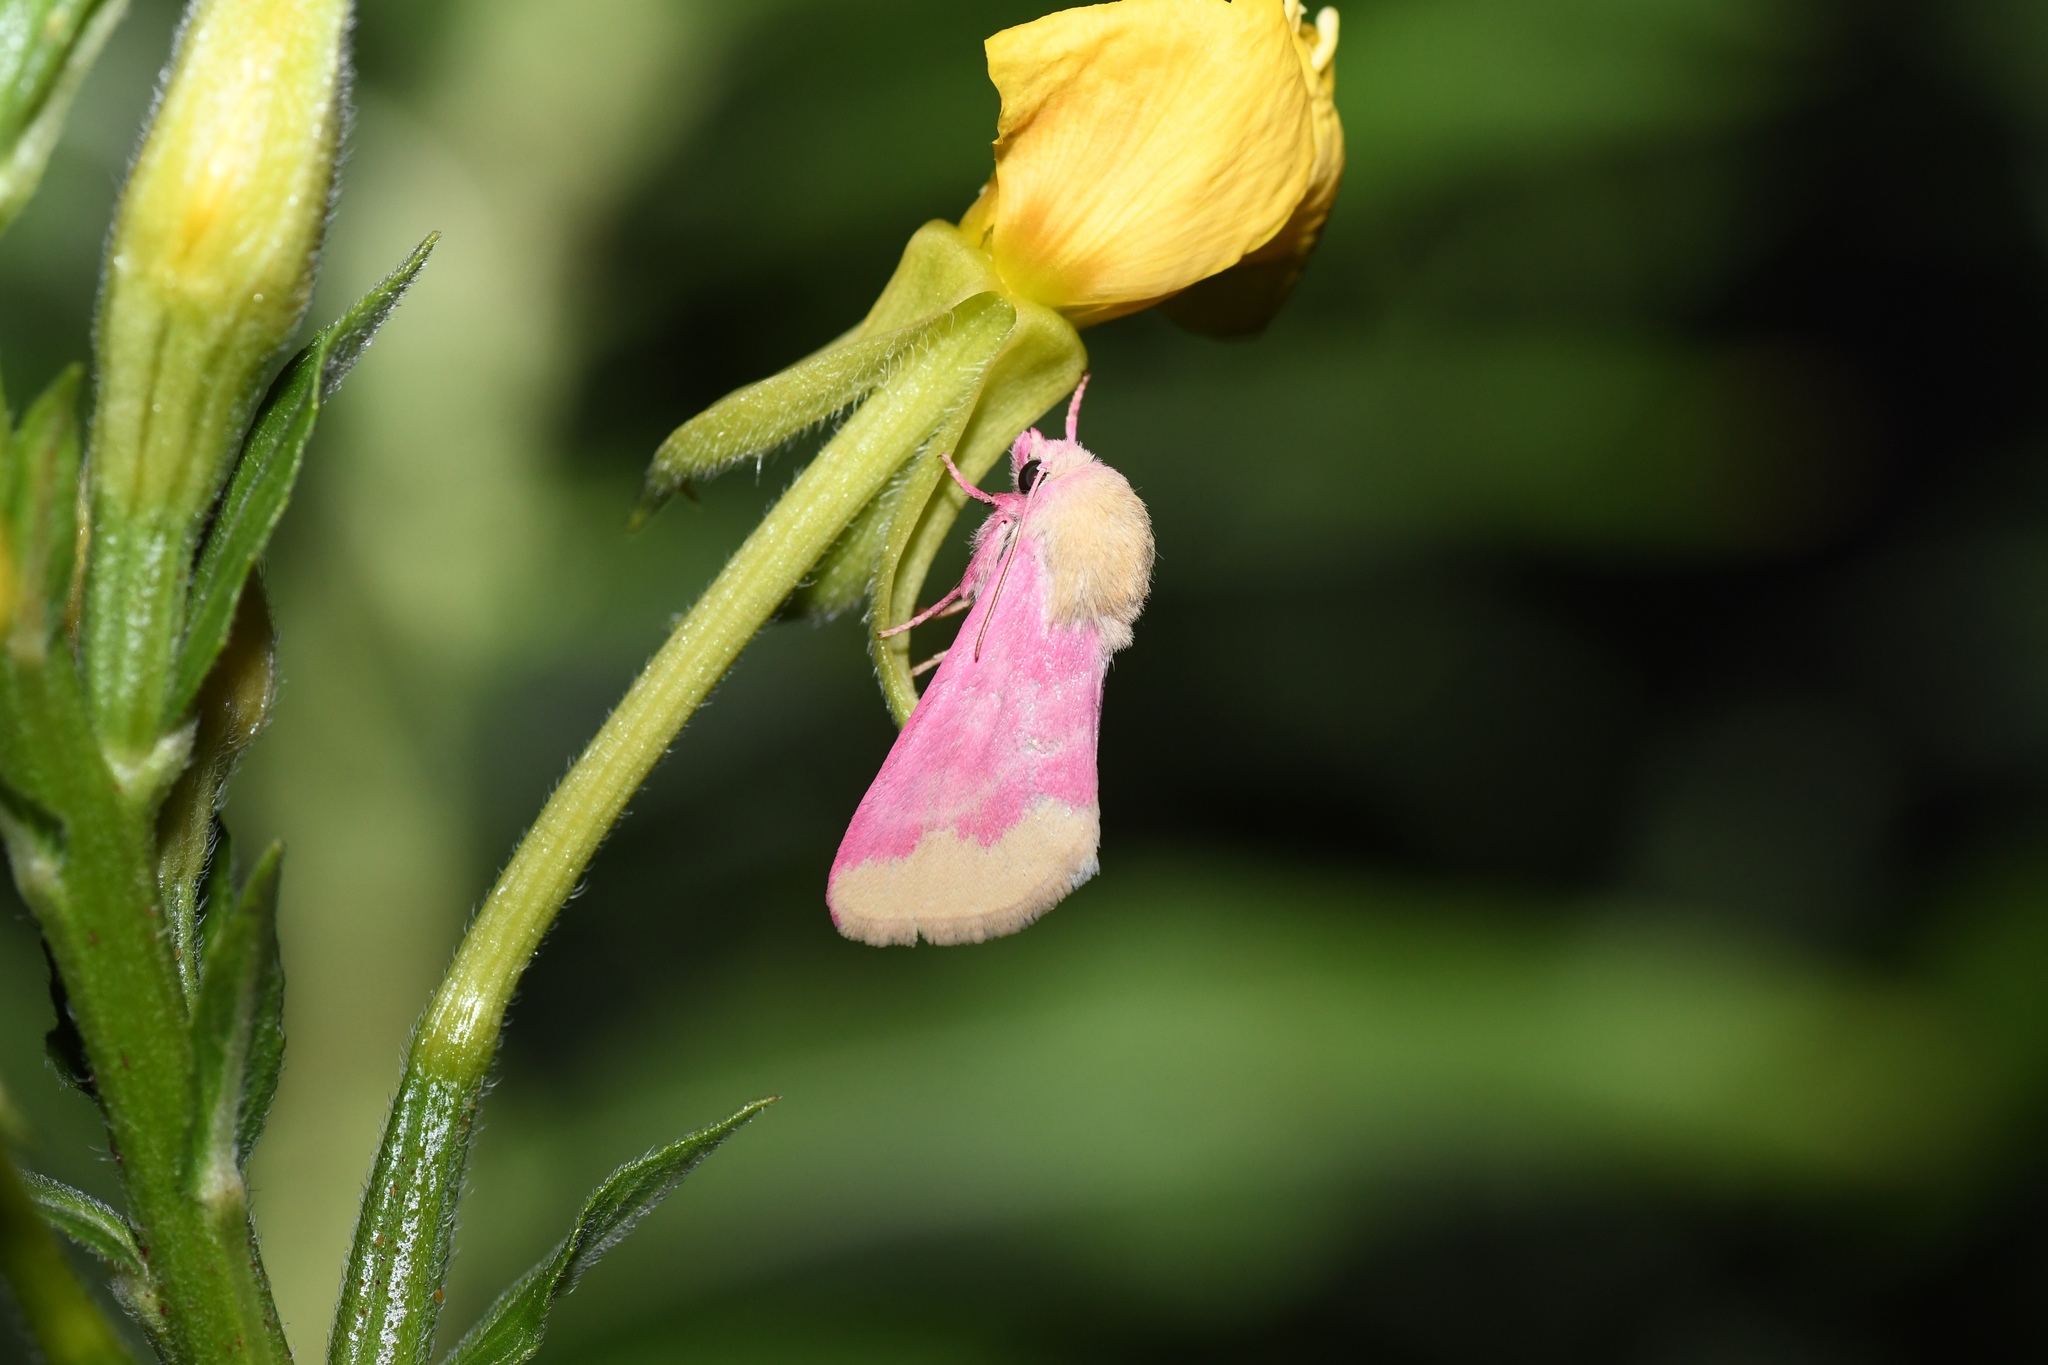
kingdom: Animalia
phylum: Arthropoda
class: Insecta
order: Lepidoptera
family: Noctuidae
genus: Schinia
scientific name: Schinia florida
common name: Primrose moth
